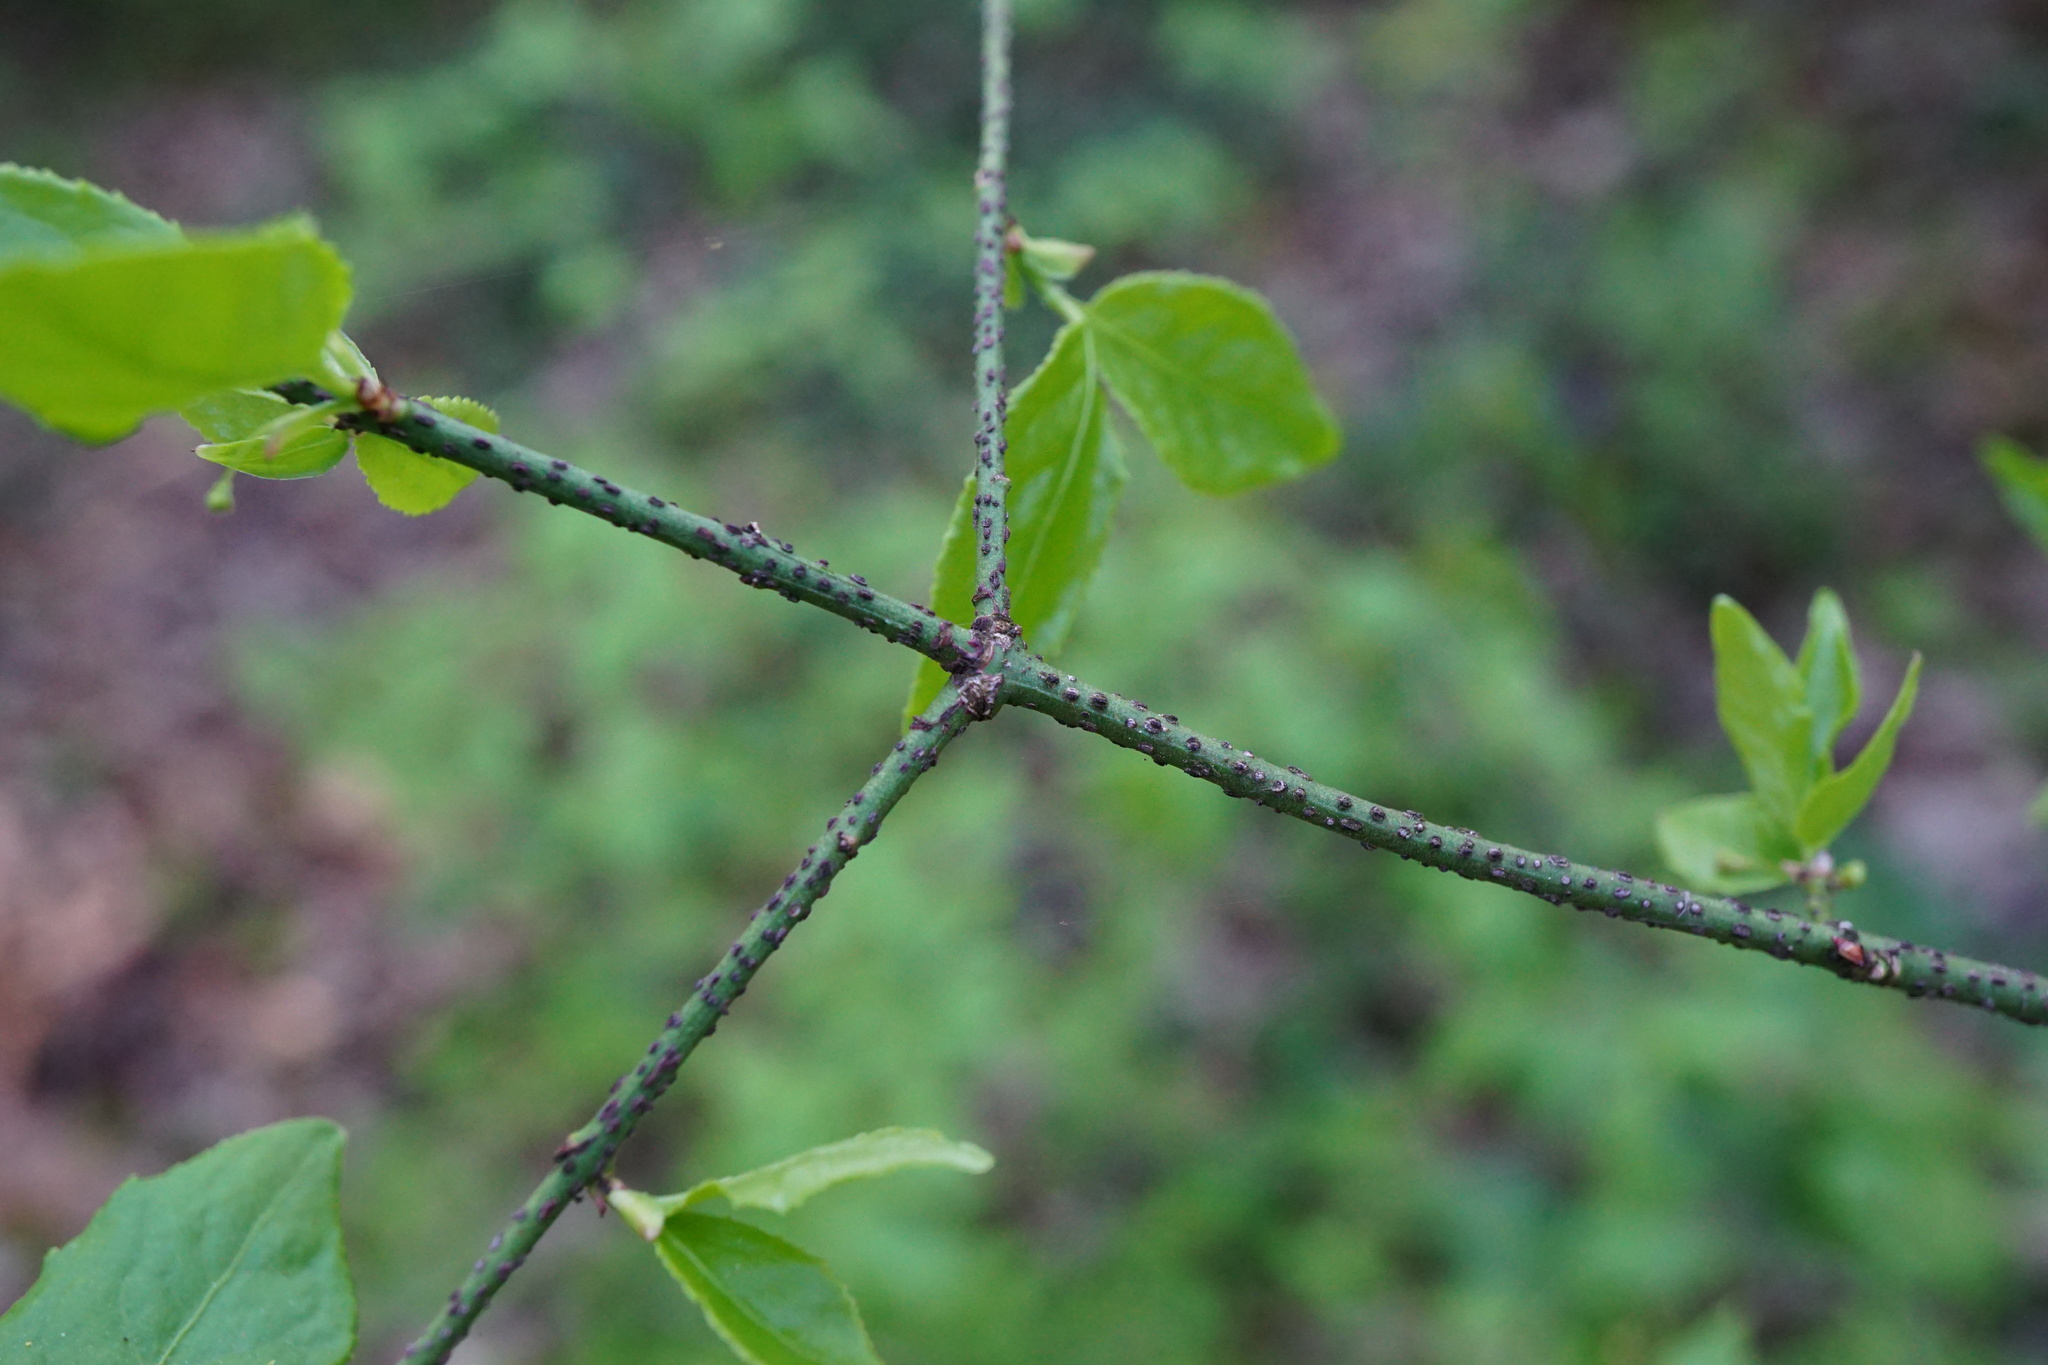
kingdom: Plantae
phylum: Tracheophyta
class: Magnoliopsida
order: Celastrales
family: Celastraceae
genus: Euonymus
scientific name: Euonymus verrucosus
